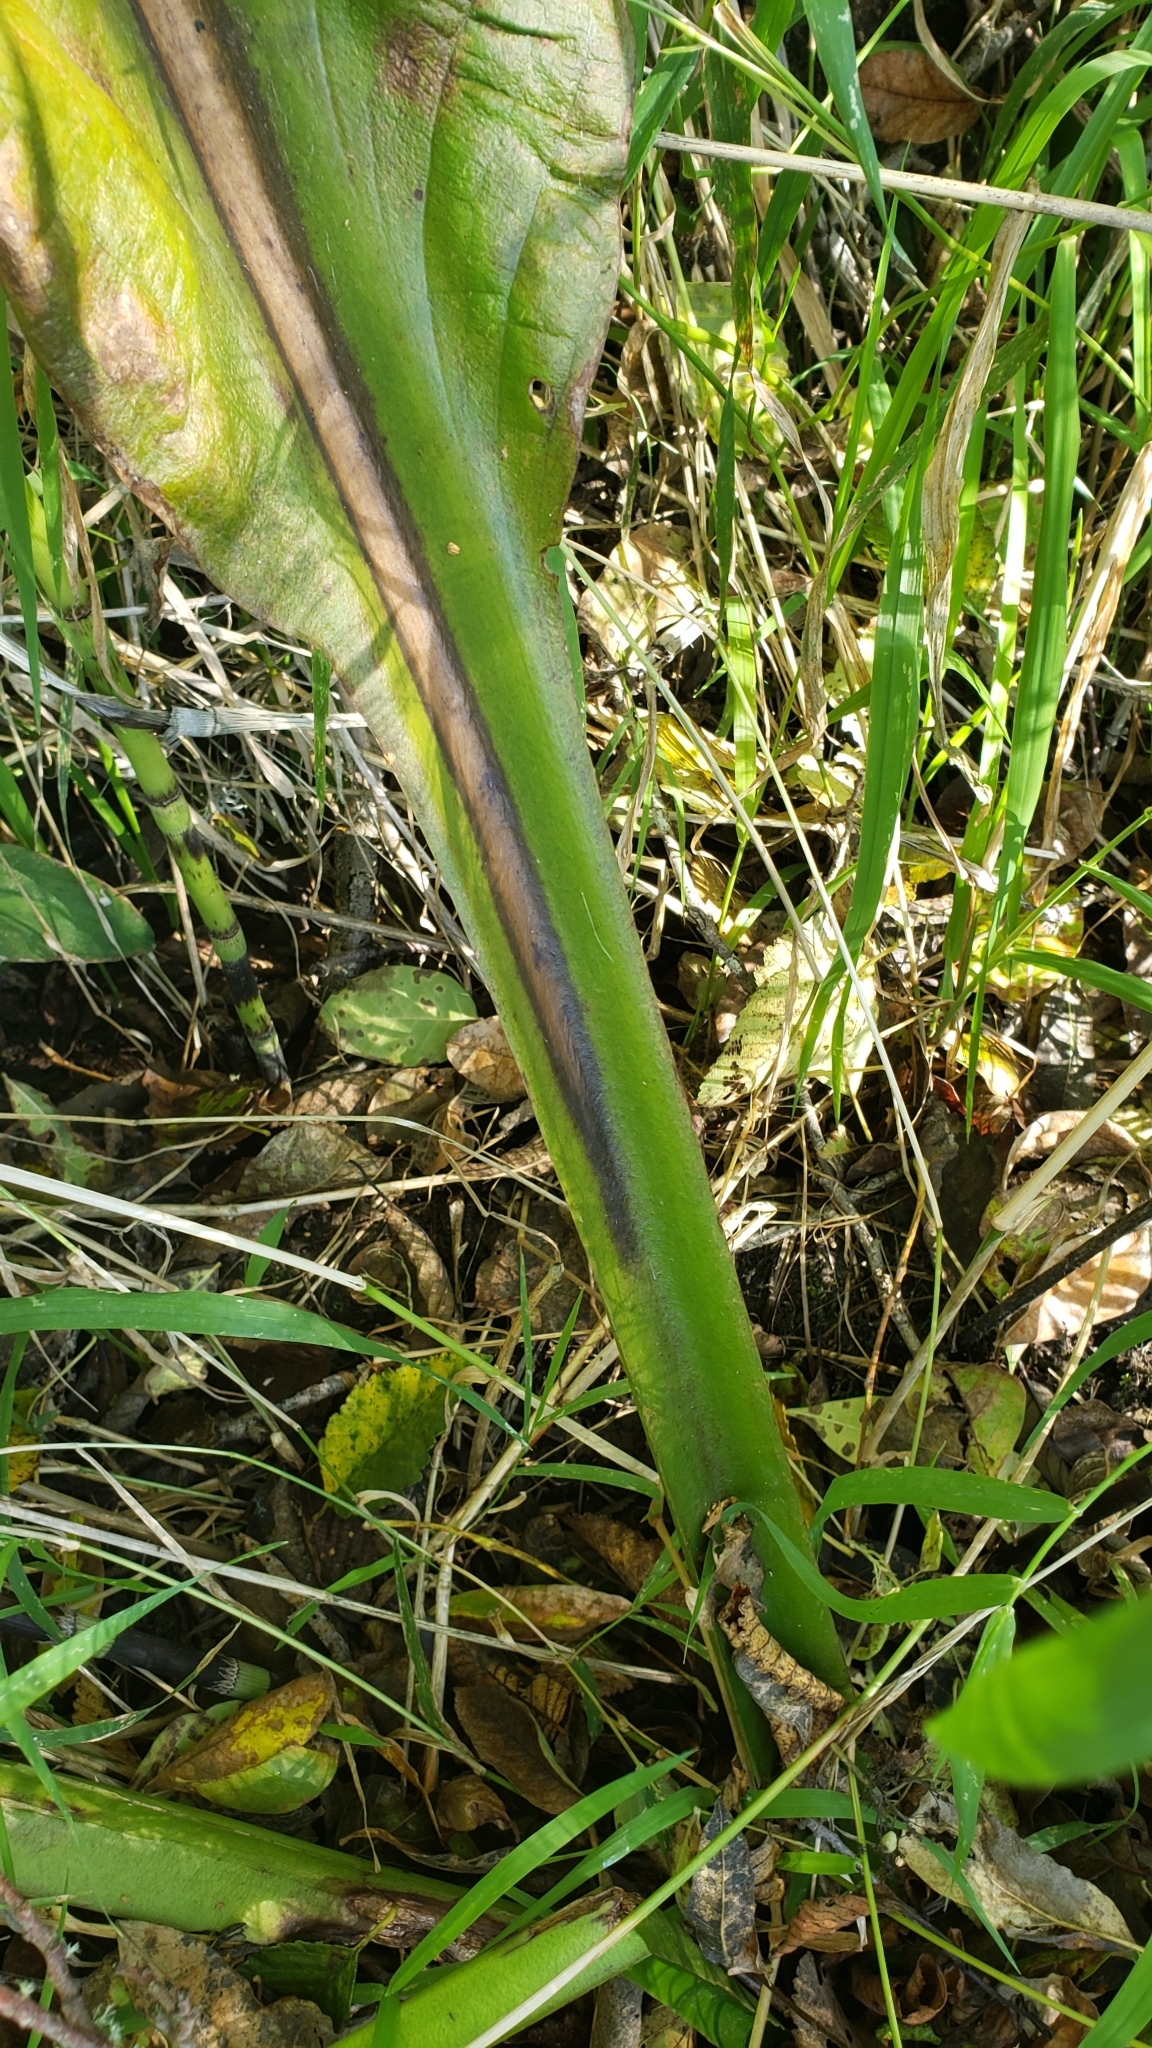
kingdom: Plantae
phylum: Tracheophyta
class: Liliopsida
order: Alismatales
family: Araceae
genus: Lysichiton
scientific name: Lysichiton americanus
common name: American skunk cabbage
